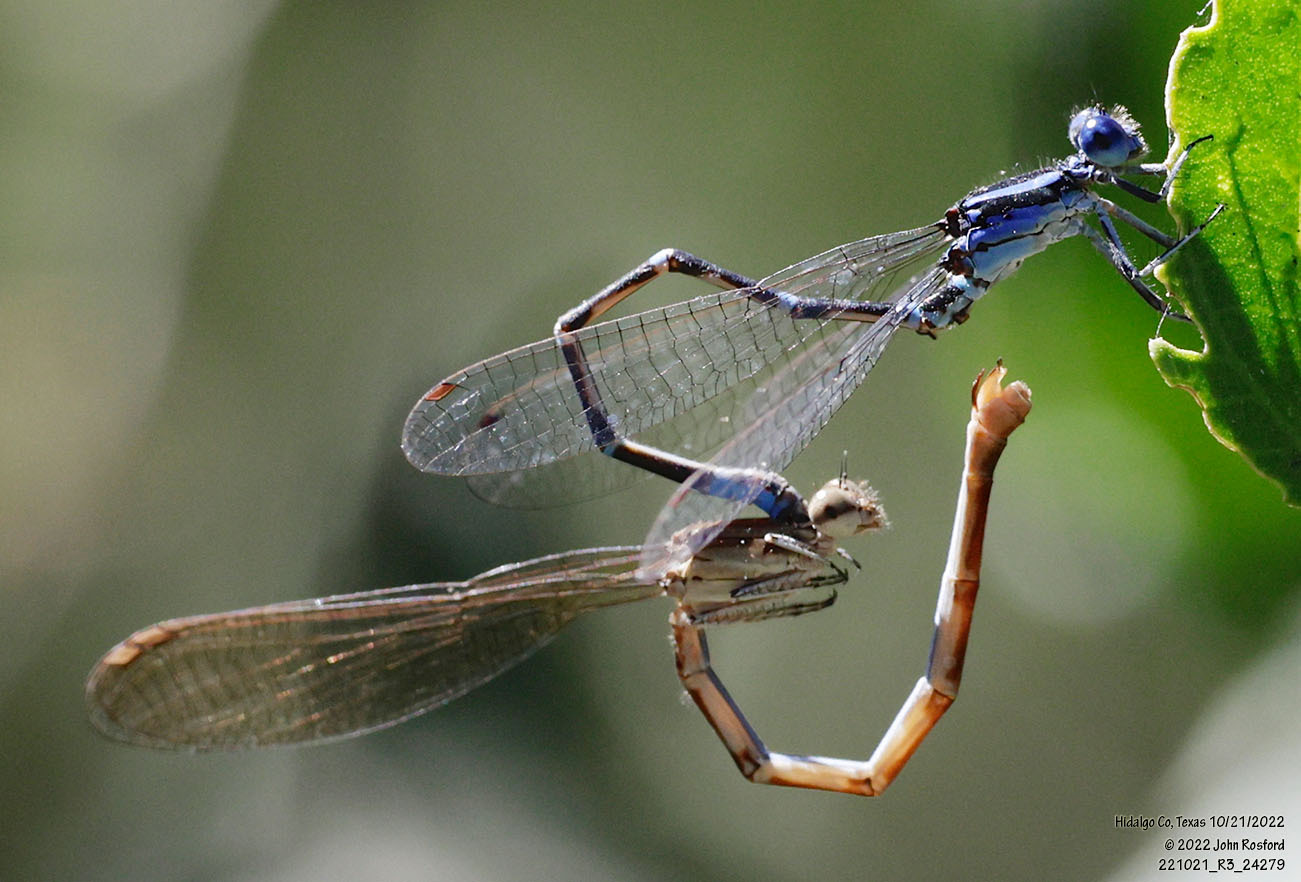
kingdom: Animalia
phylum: Arthropoda
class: Insecta
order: Odonata
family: Coenagrionidae
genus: Argia
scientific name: Argia sedula
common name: Blue-ringed dancer
